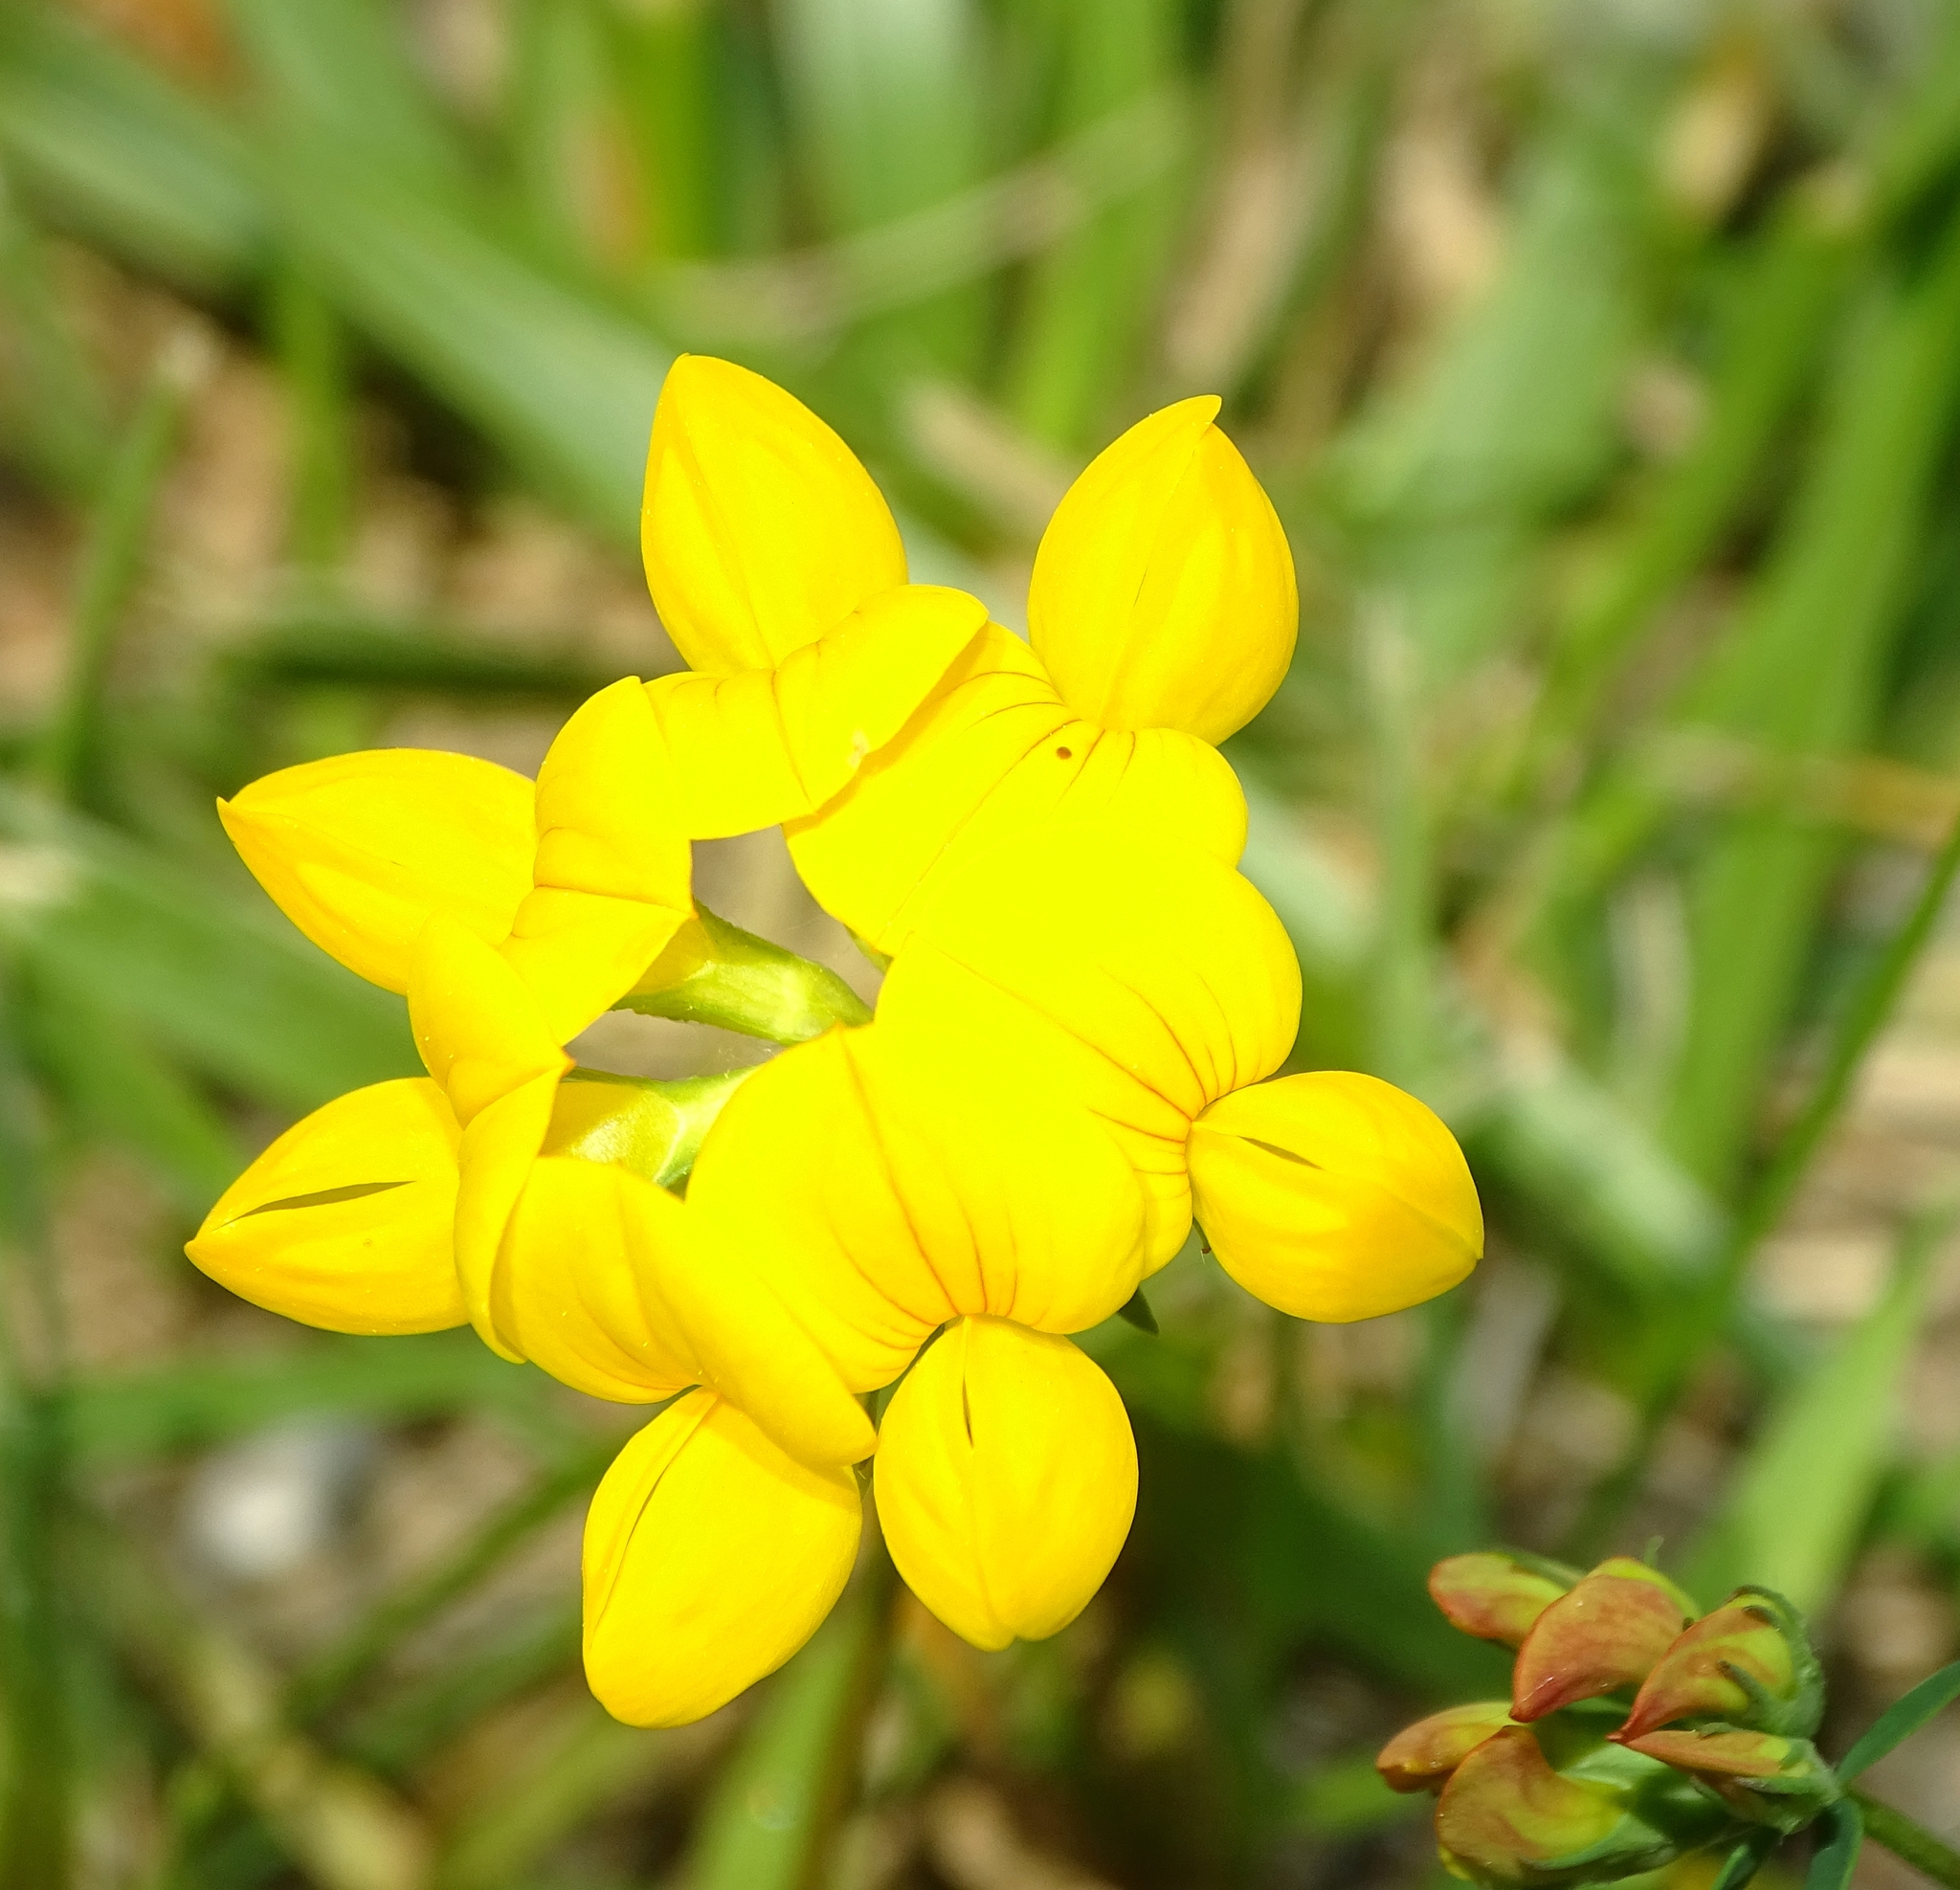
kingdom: Plantae
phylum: Tracheophyta
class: Magnoliopsida
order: Fabales
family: Fabaceae
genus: Lotus
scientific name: Lotus corniculatus
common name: Common bird's-foot-trefoil
